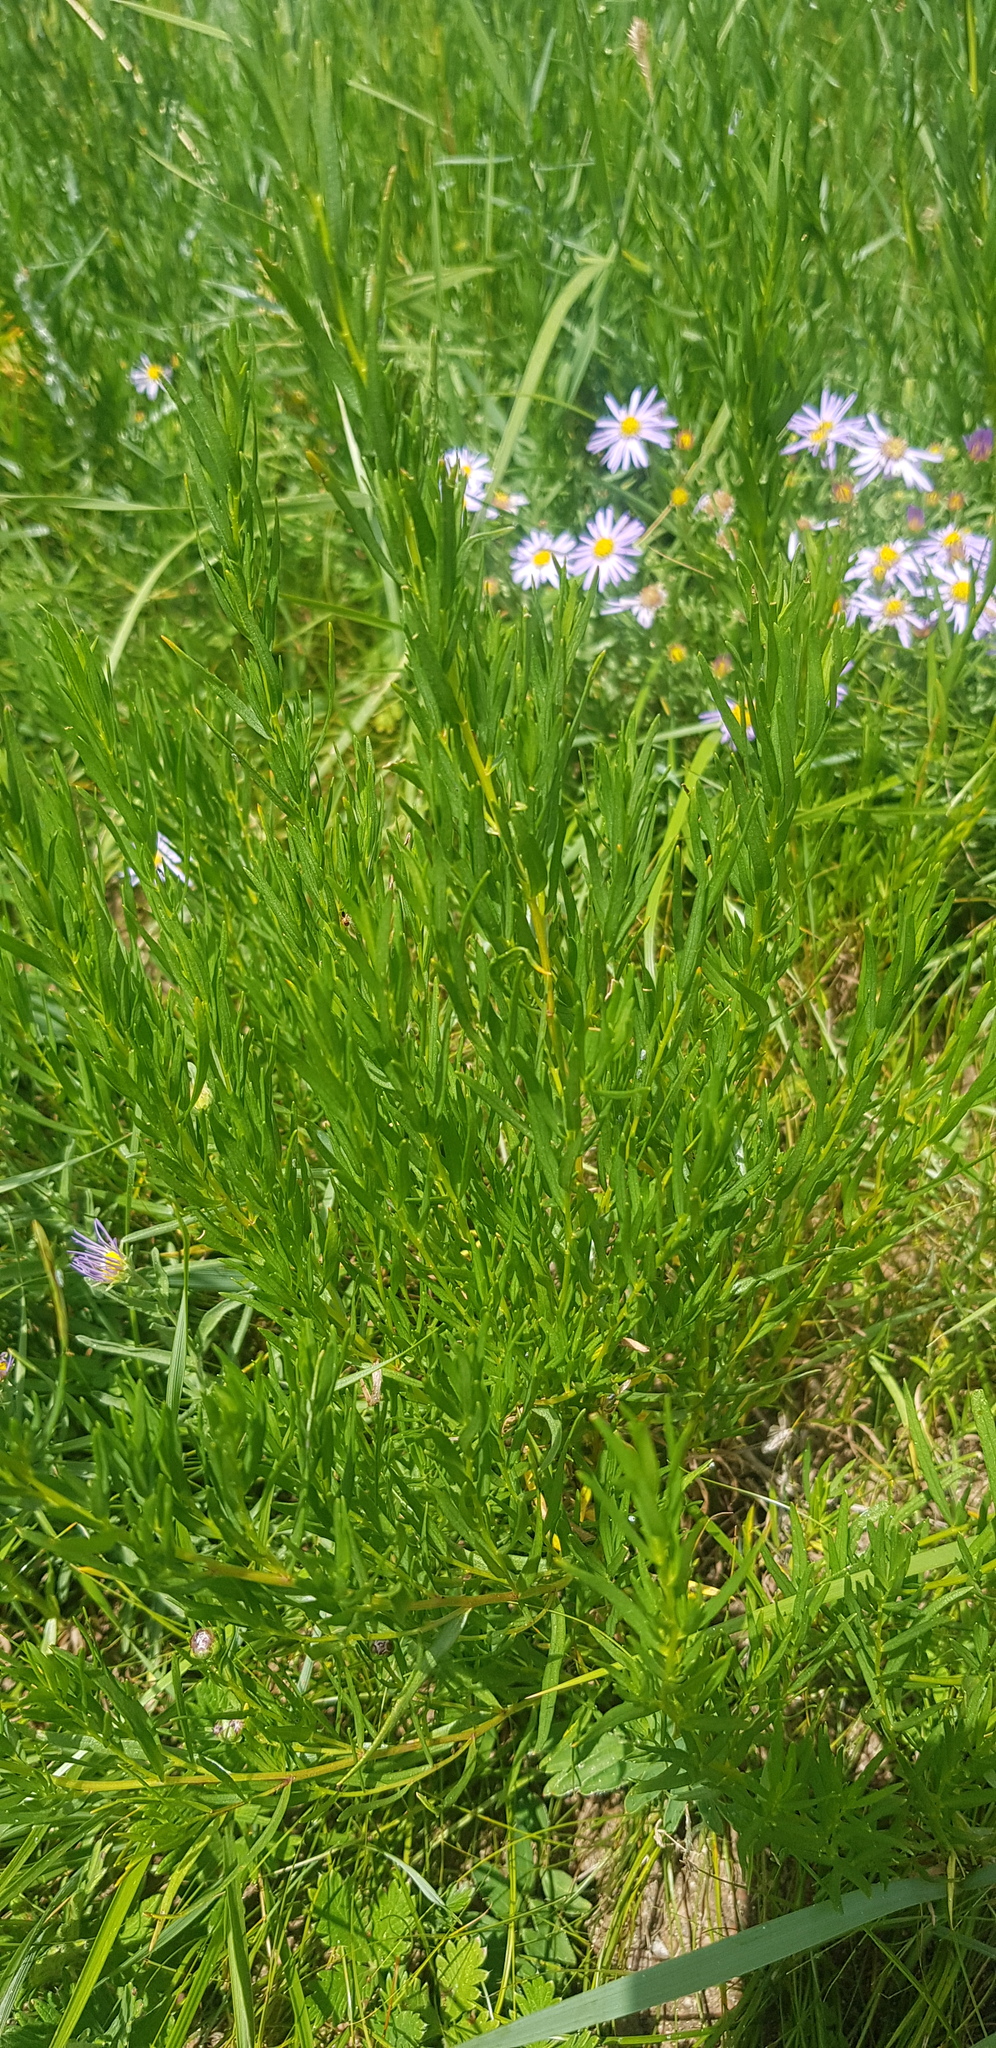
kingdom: Plantae
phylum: Tracheophyta
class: Magnoliopsida
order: Asterales
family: Asteraceae
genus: Artemisia
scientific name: Artemisia dracunculus
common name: Tarragon
